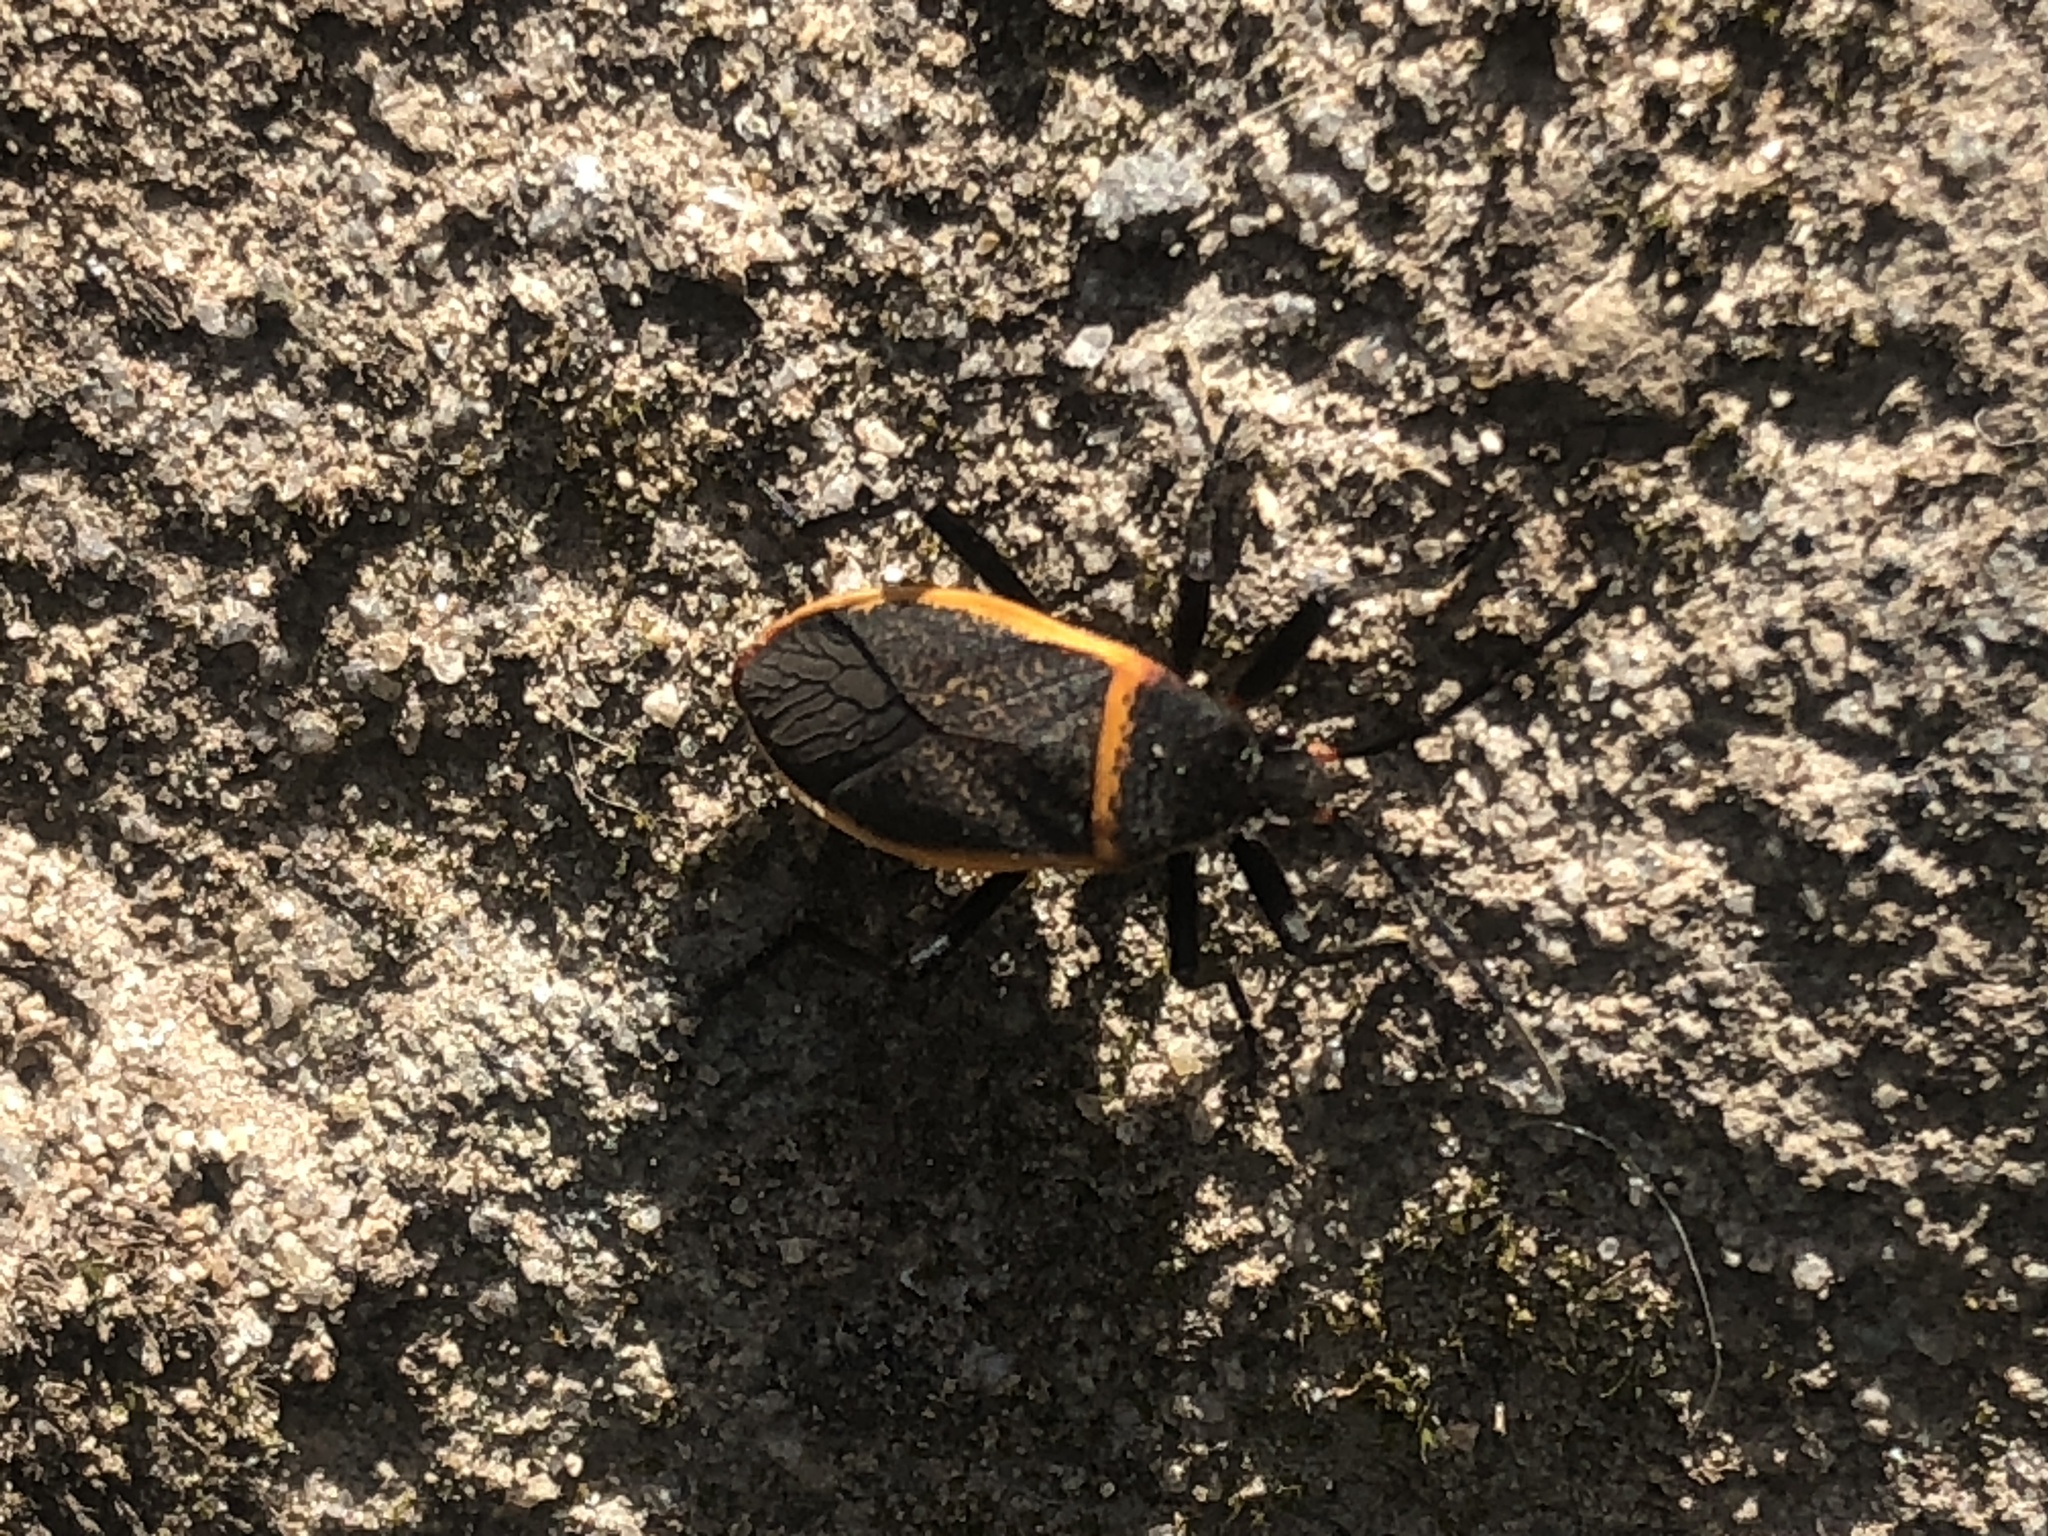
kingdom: Animalia
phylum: Arthropoda
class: Insecta
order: Hemiptera
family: Largidae
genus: Largus
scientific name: Largus californicus
